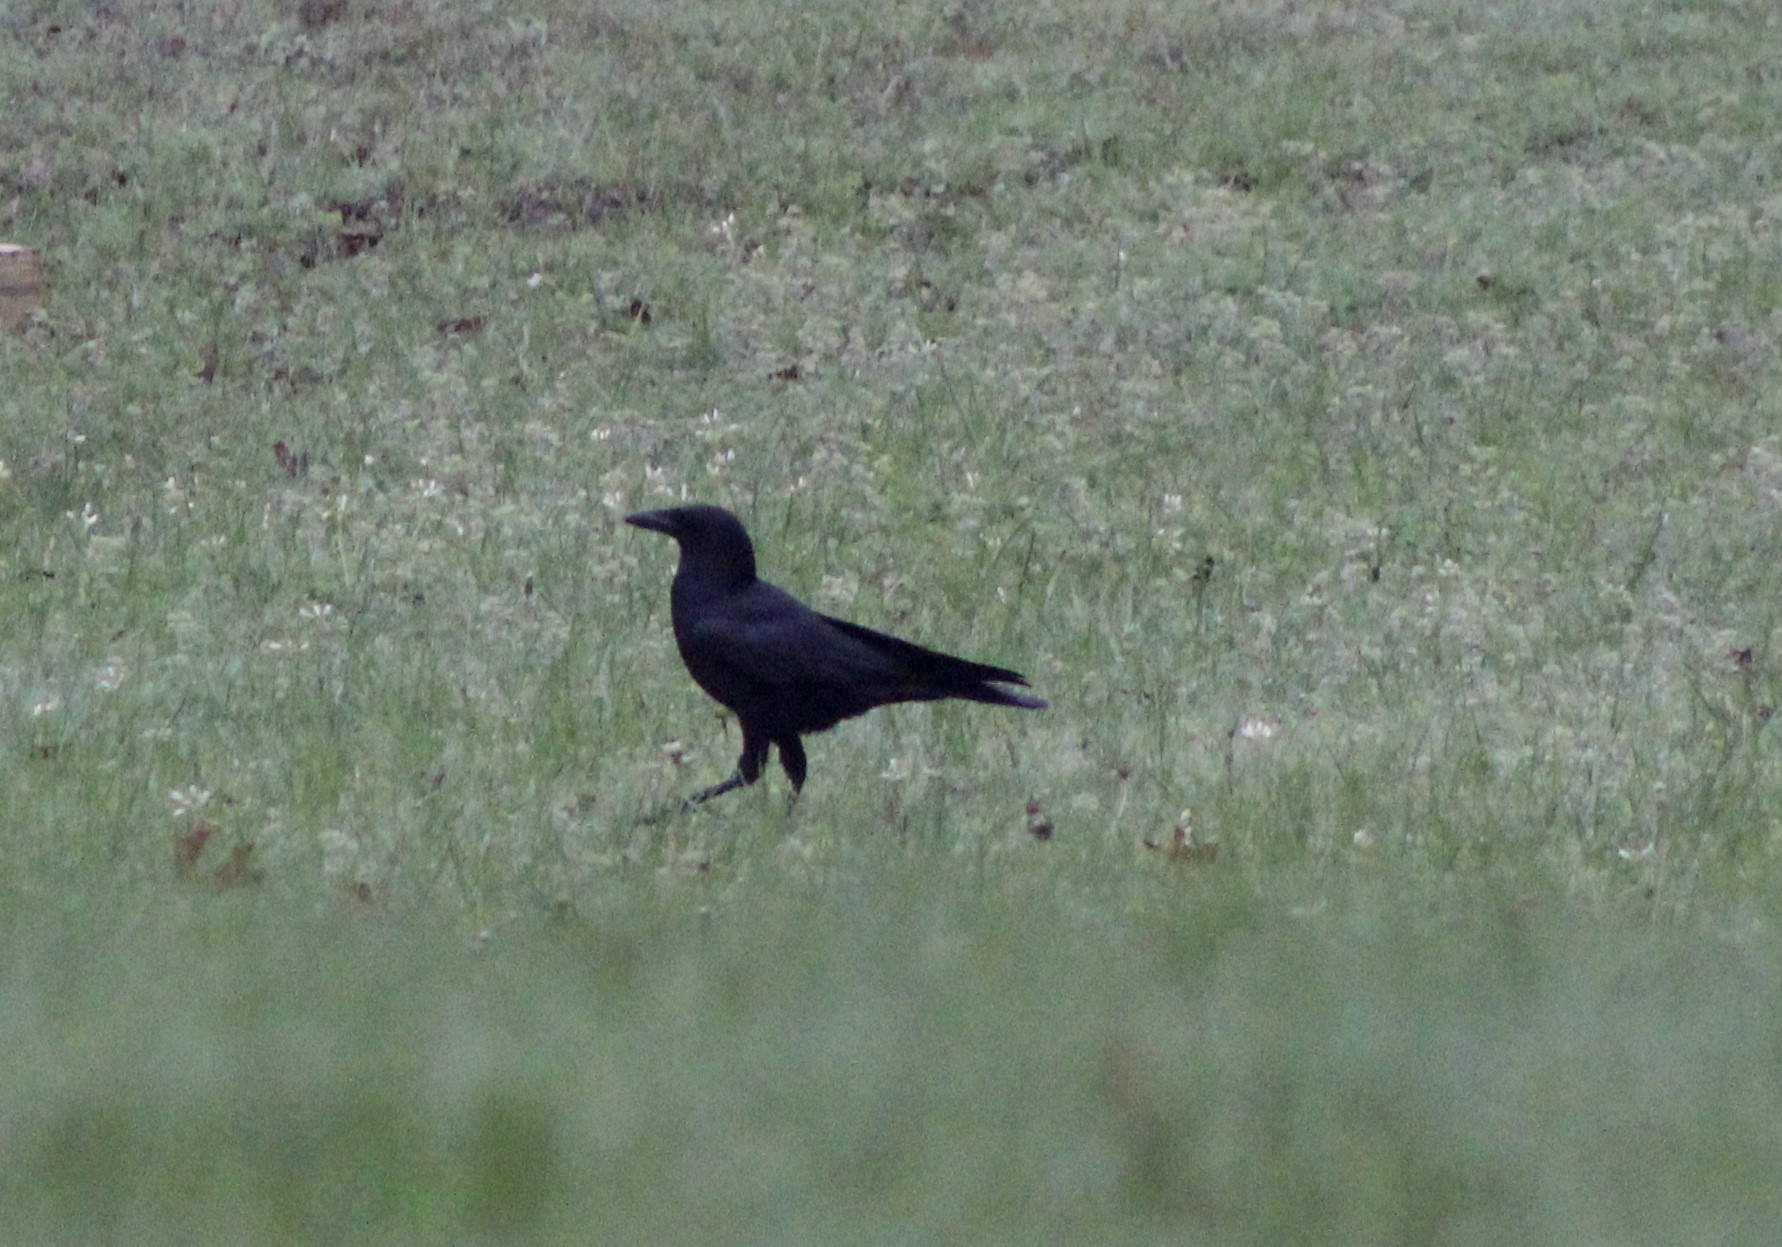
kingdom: Animalia
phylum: Chordata
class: Aves
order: Passeriformes
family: Corvidae
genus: Corvus
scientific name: Corvus brachyrhynchos
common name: American crow
